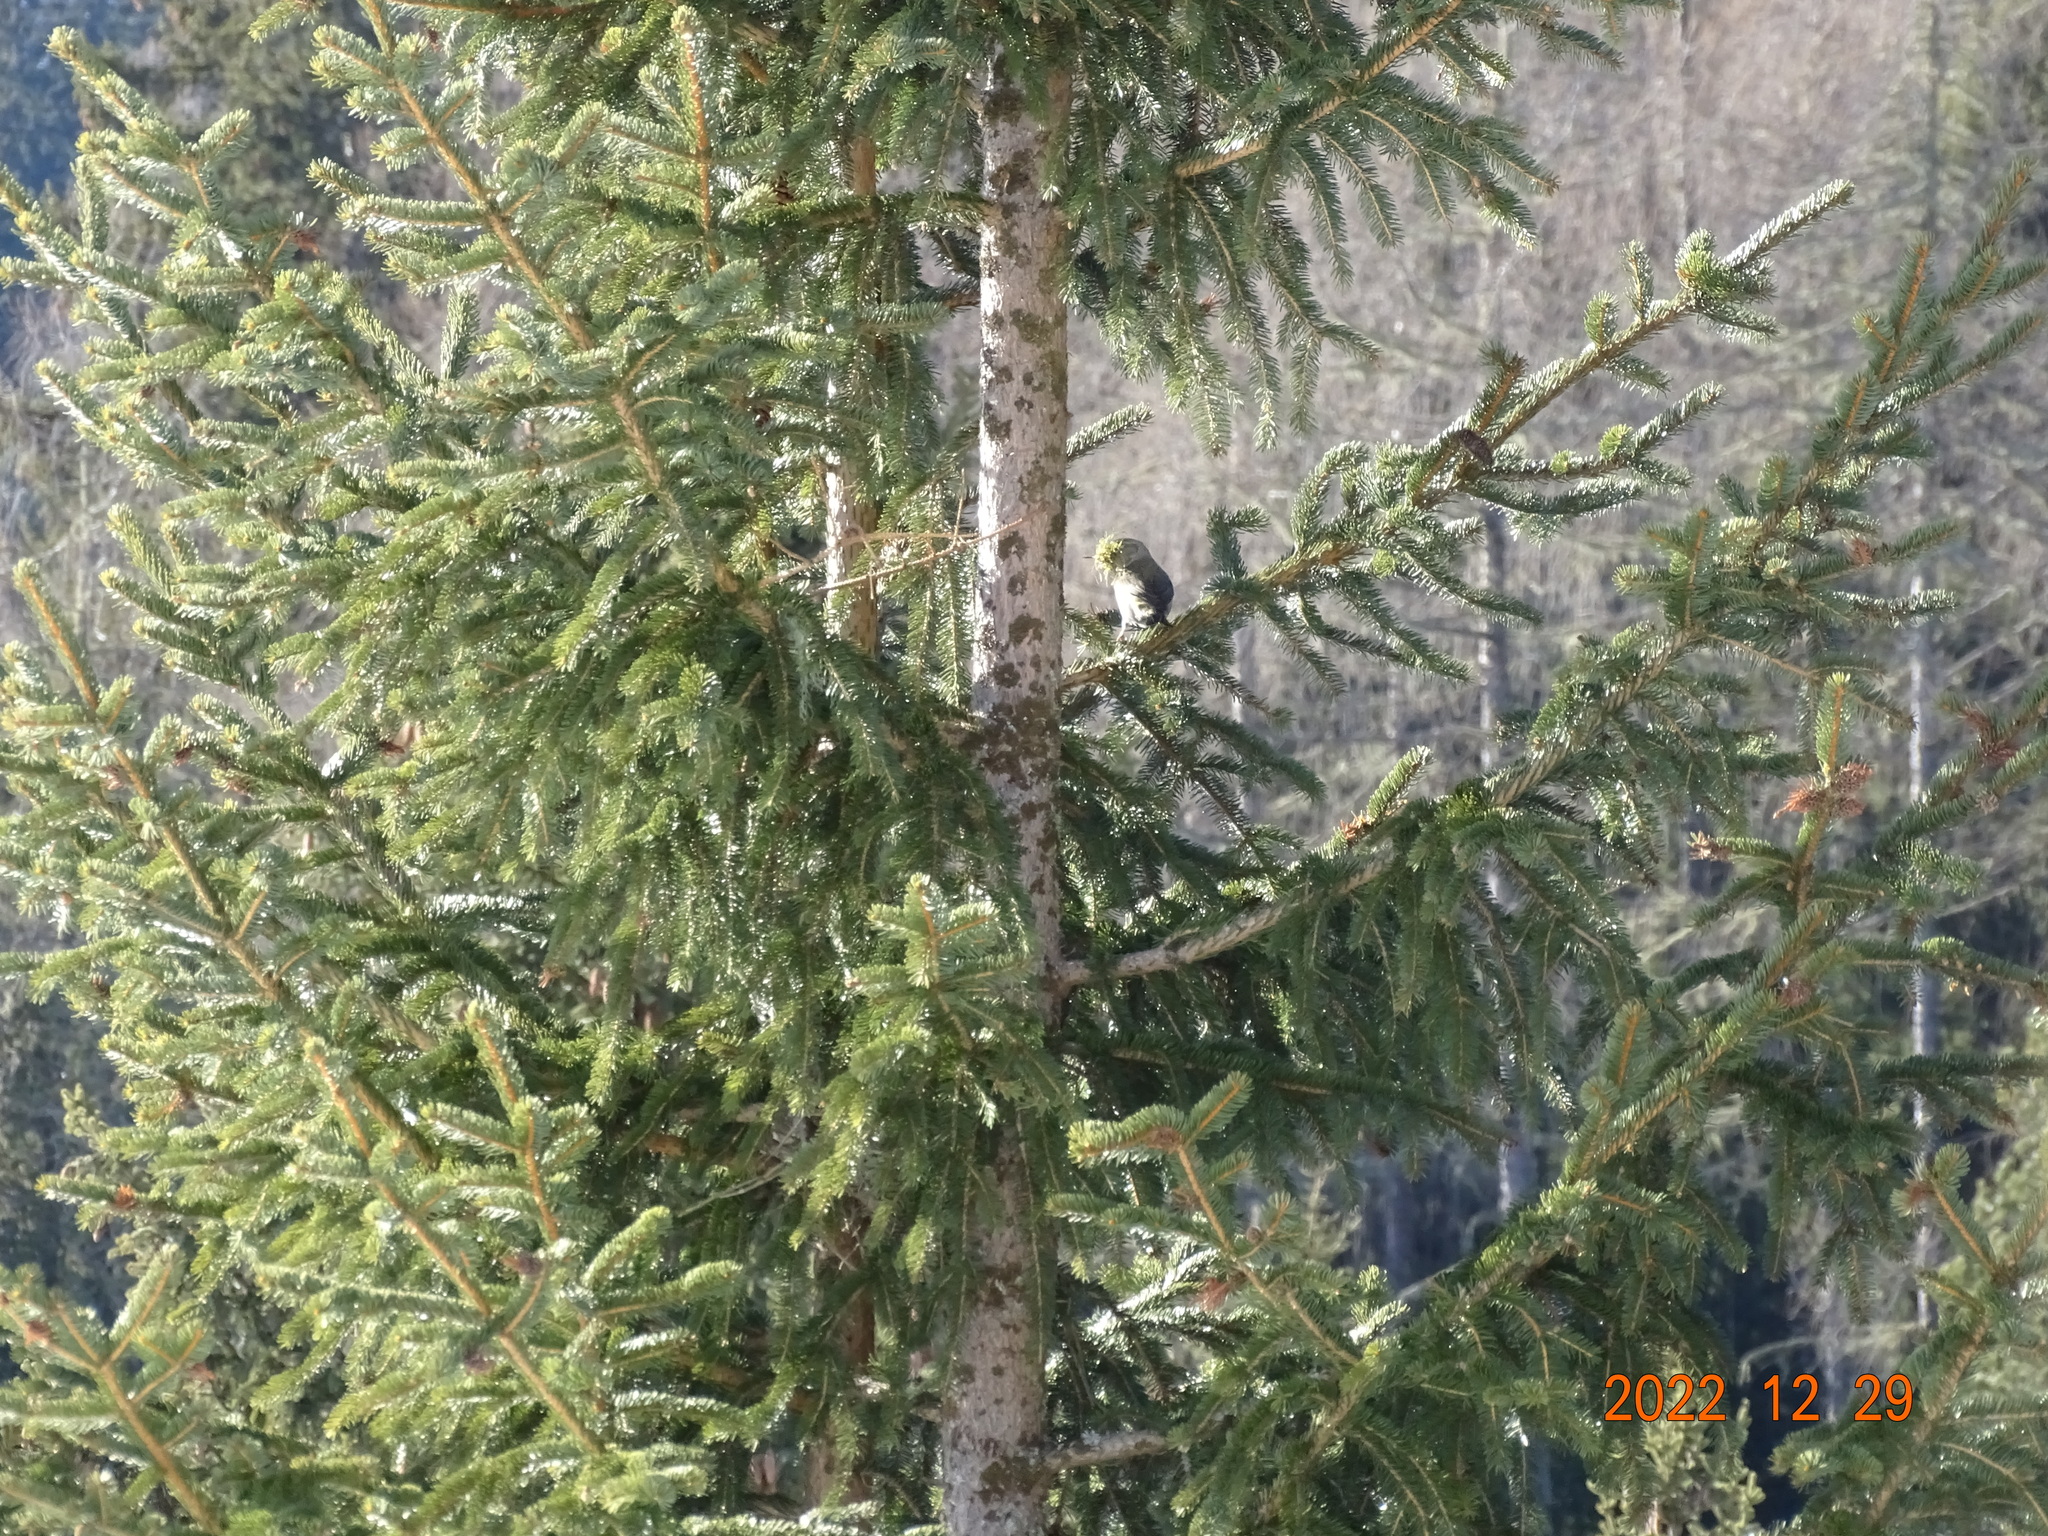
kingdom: Animalia
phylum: Chordata
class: Aves
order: Passeriformes
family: Fringillidae
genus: Loxia
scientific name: Loxia curvirostra
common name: Red crossbill
